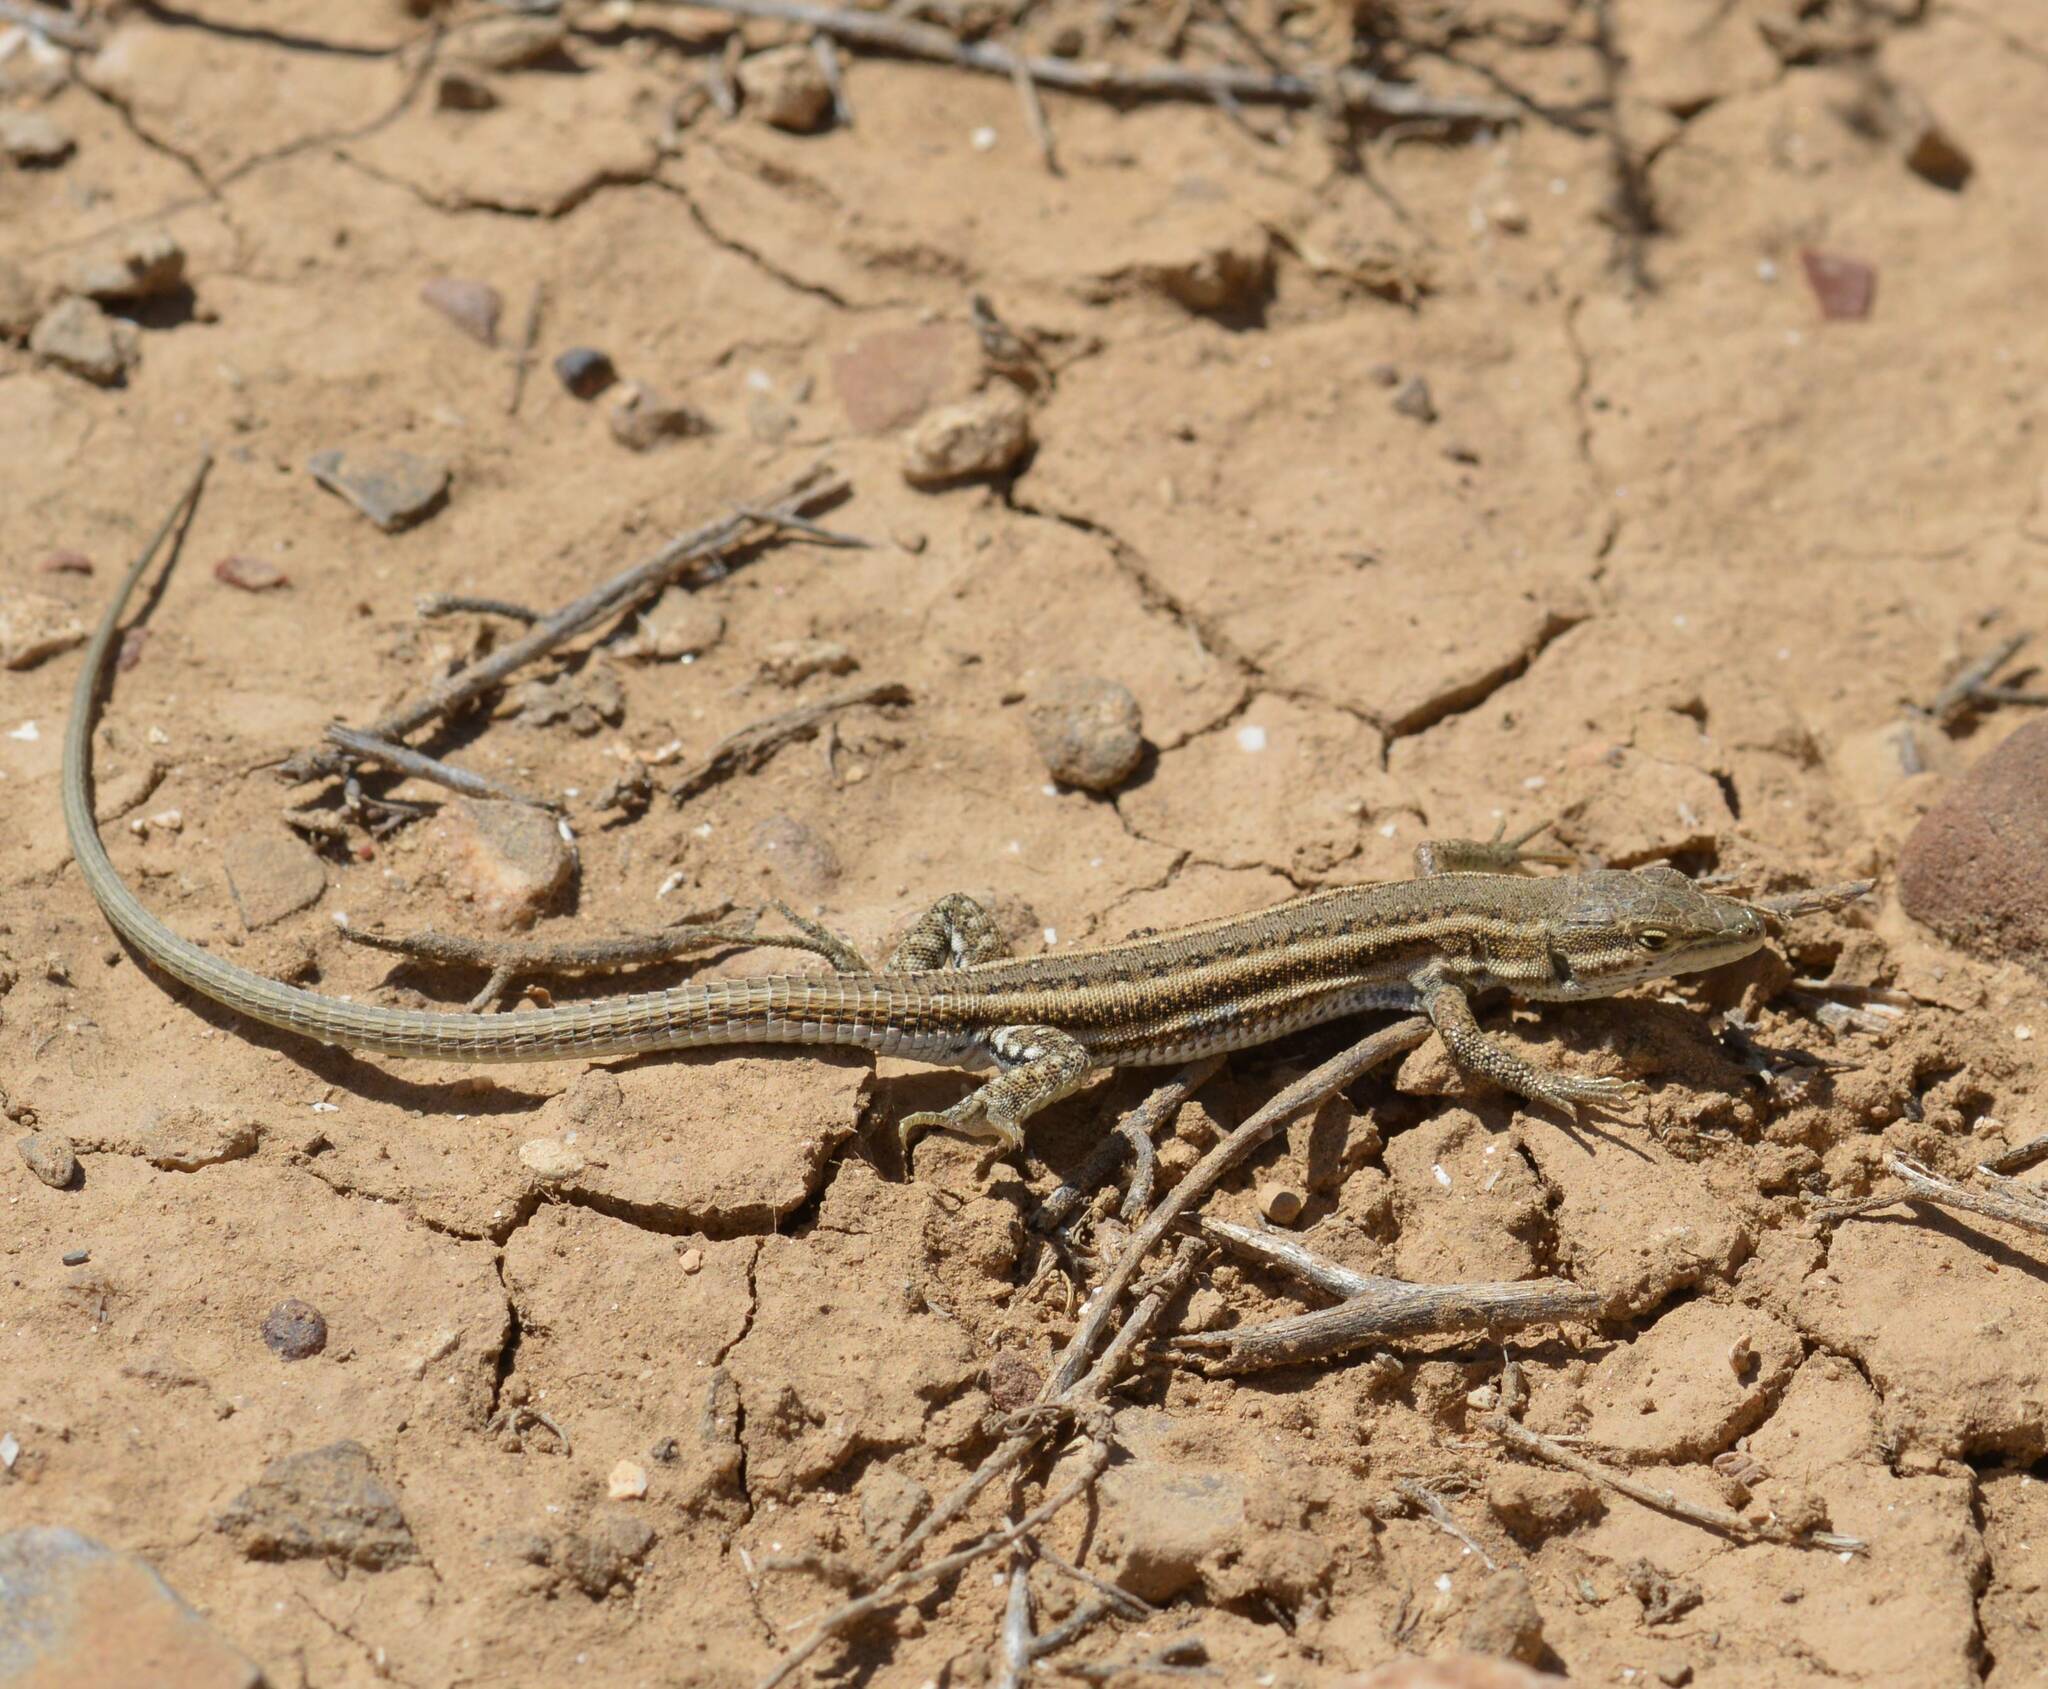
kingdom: Animalia
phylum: Chordata
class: Squamata
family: Lacertidae
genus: Mesalina
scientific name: Mesalina olivieri
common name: Oliver's desert racer
